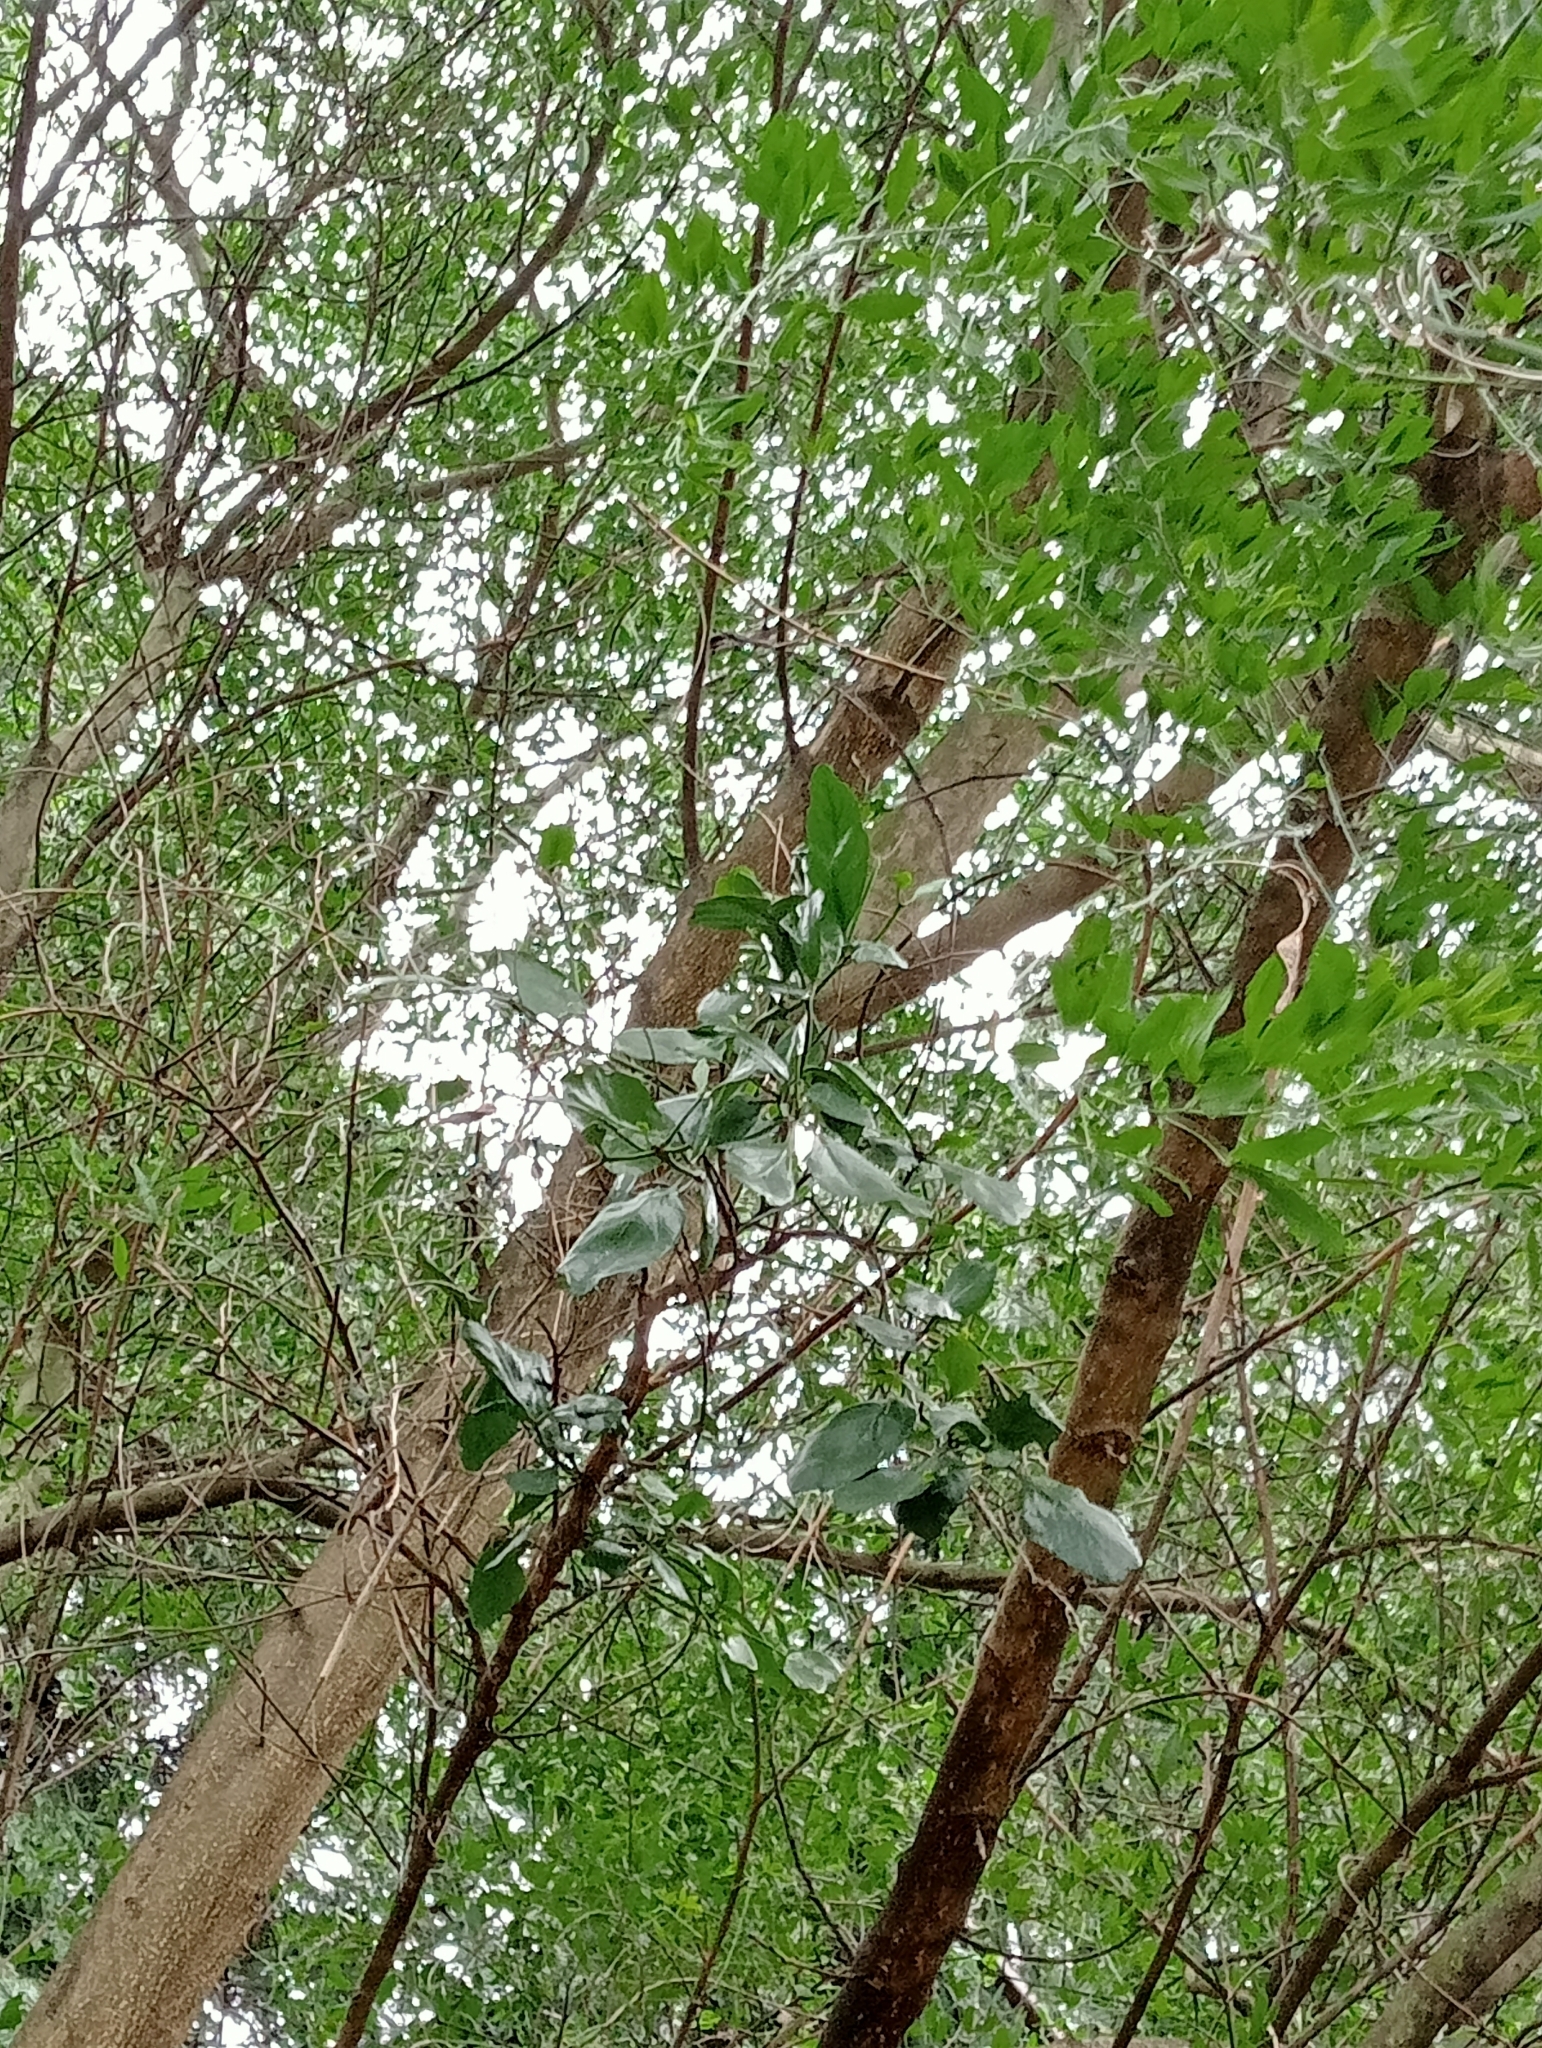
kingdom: Plantae
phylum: Tracheophyta
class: Magnoliopsida
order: Santalales
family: Loranthaceae
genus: Ileostylus
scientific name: Ileostylus micranthus
